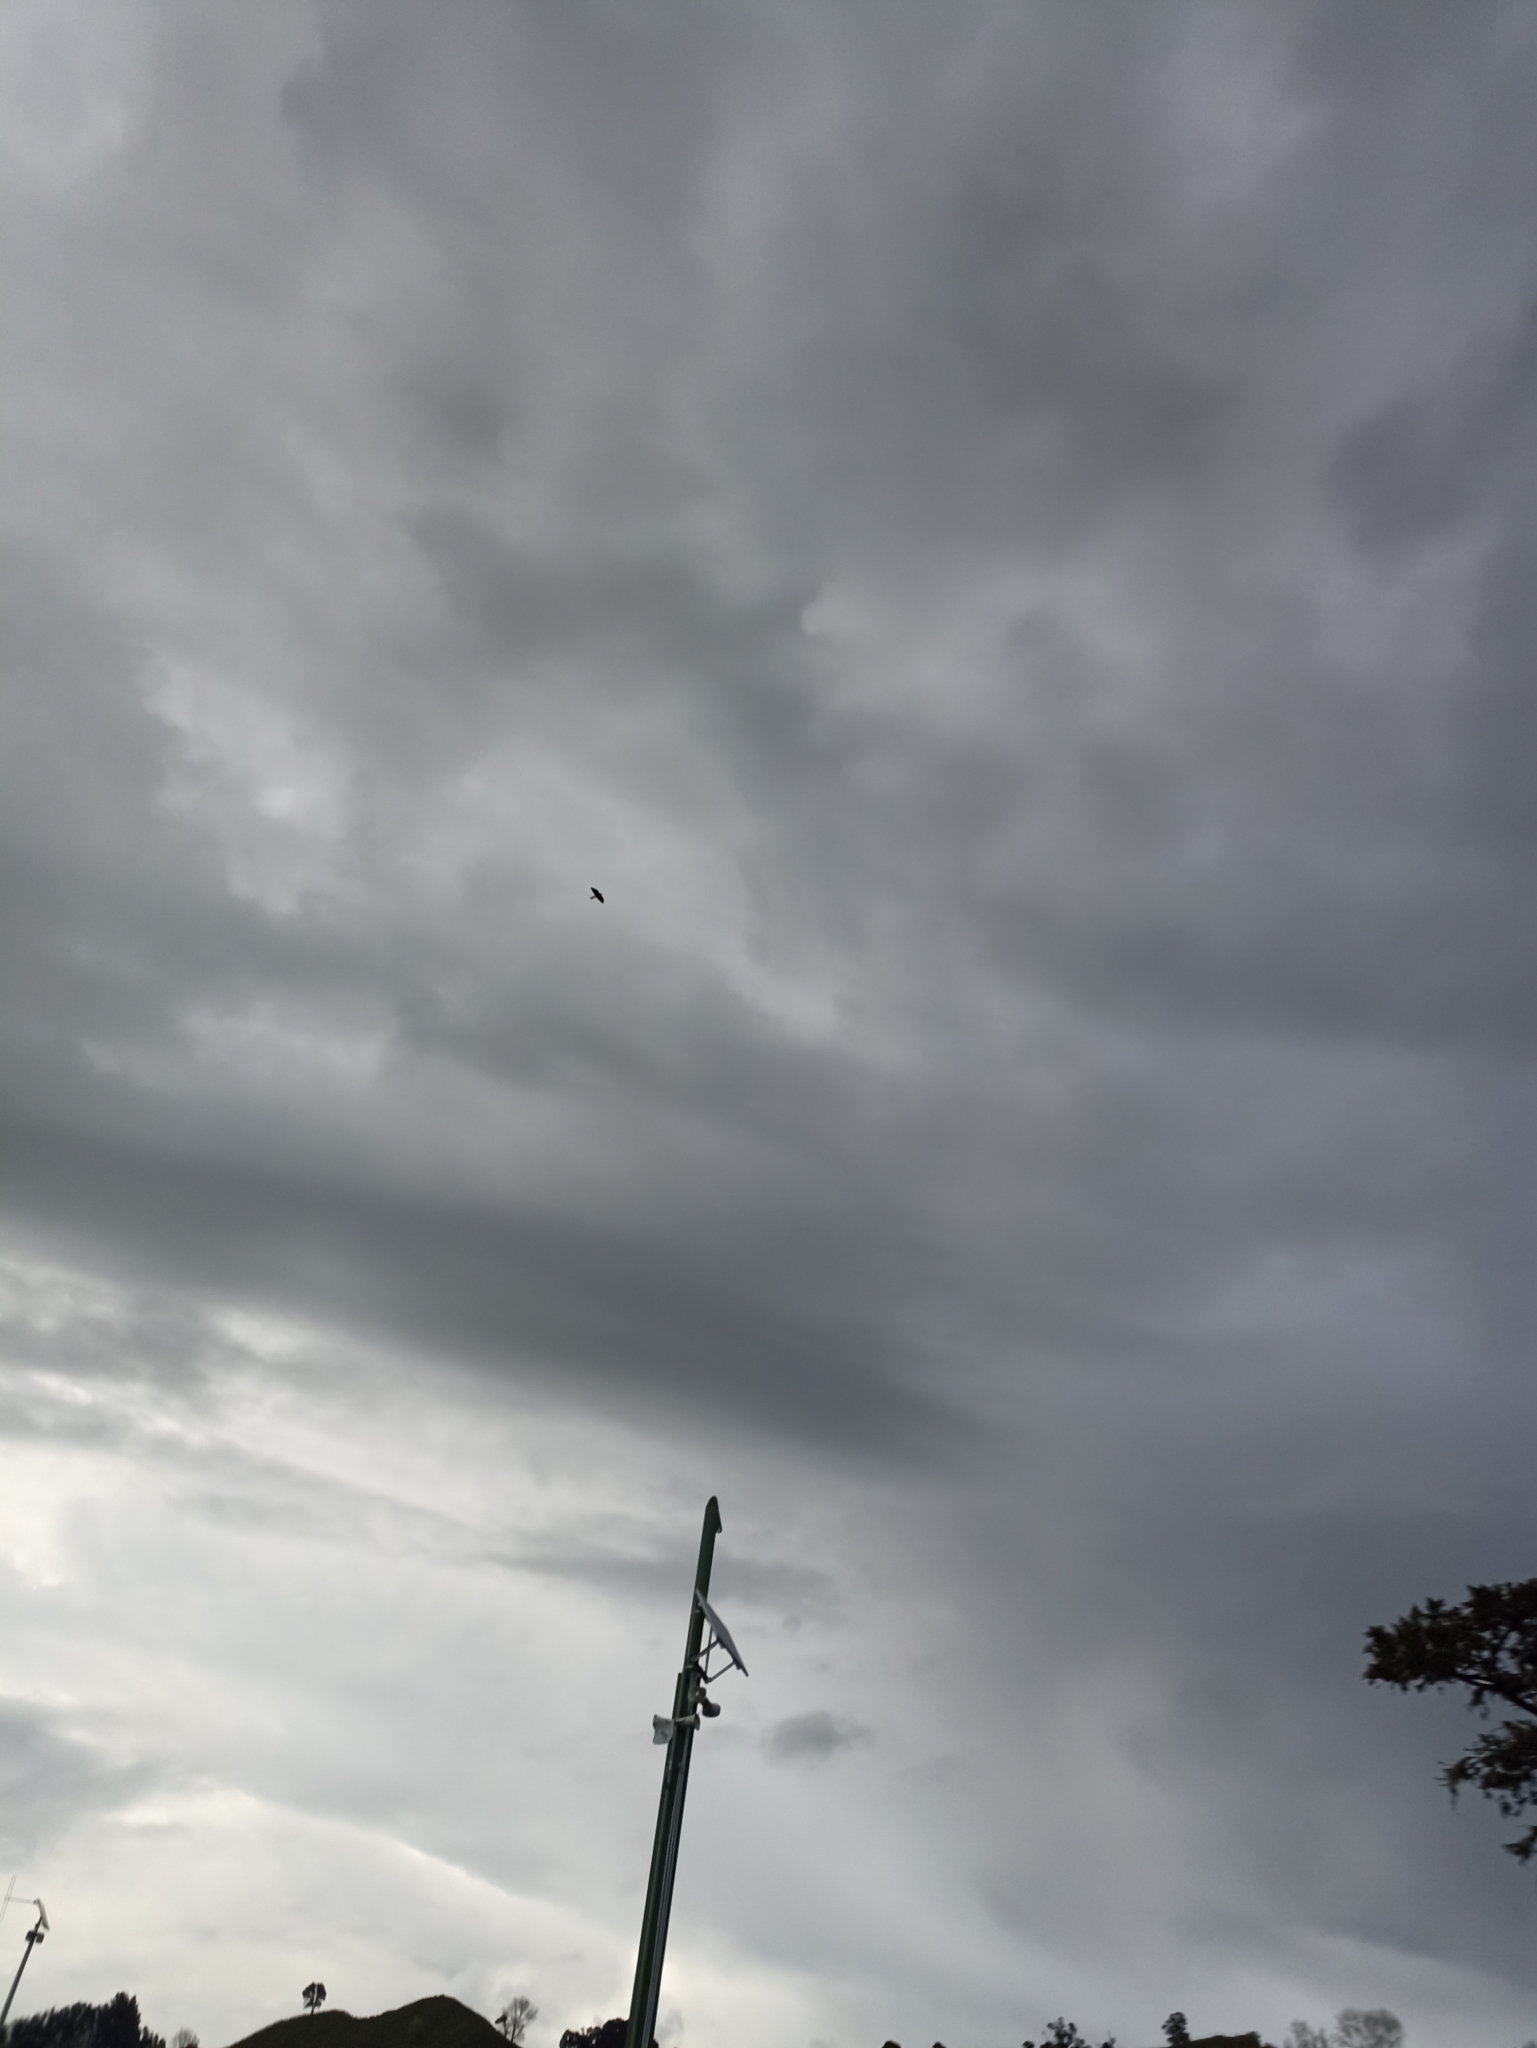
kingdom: Animalia
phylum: Chordata
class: Aves
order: Falconiformes
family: Falconidae
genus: Falco
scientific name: Falco novaeseelandiae
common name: New zealand falcon
